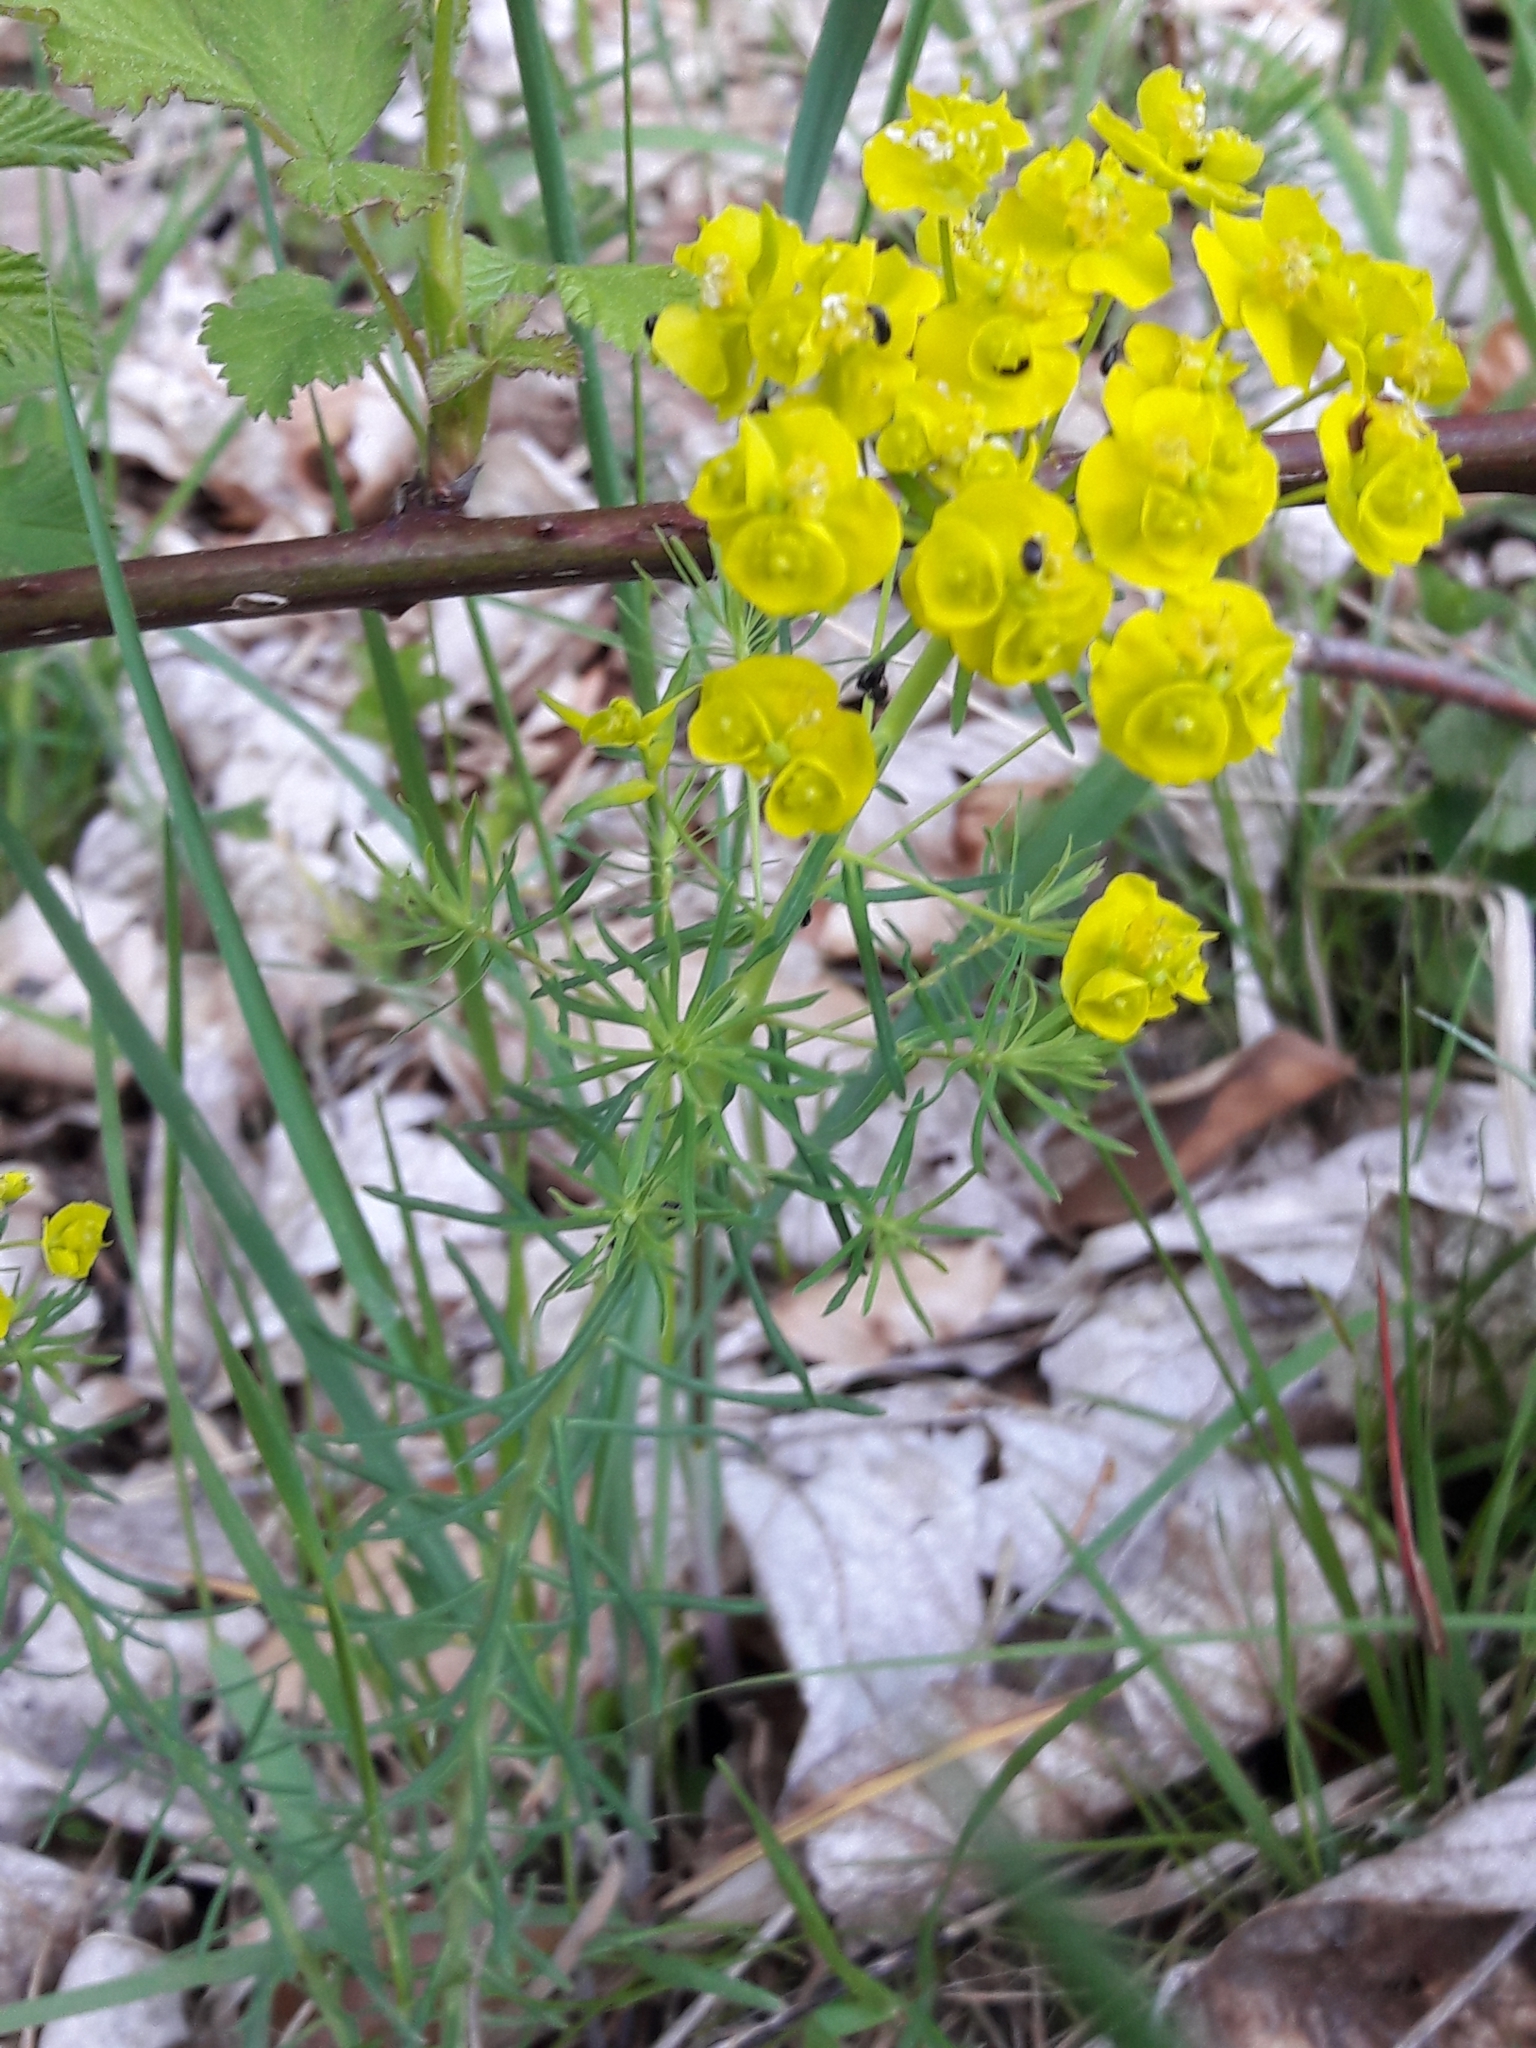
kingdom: Plantae
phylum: Tracheophyta
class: Magnoliopsida
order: Malpighiales
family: Euphorbiaceae
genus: Euphorbia
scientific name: Euphorbia cyparissias
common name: Cypress spurge
